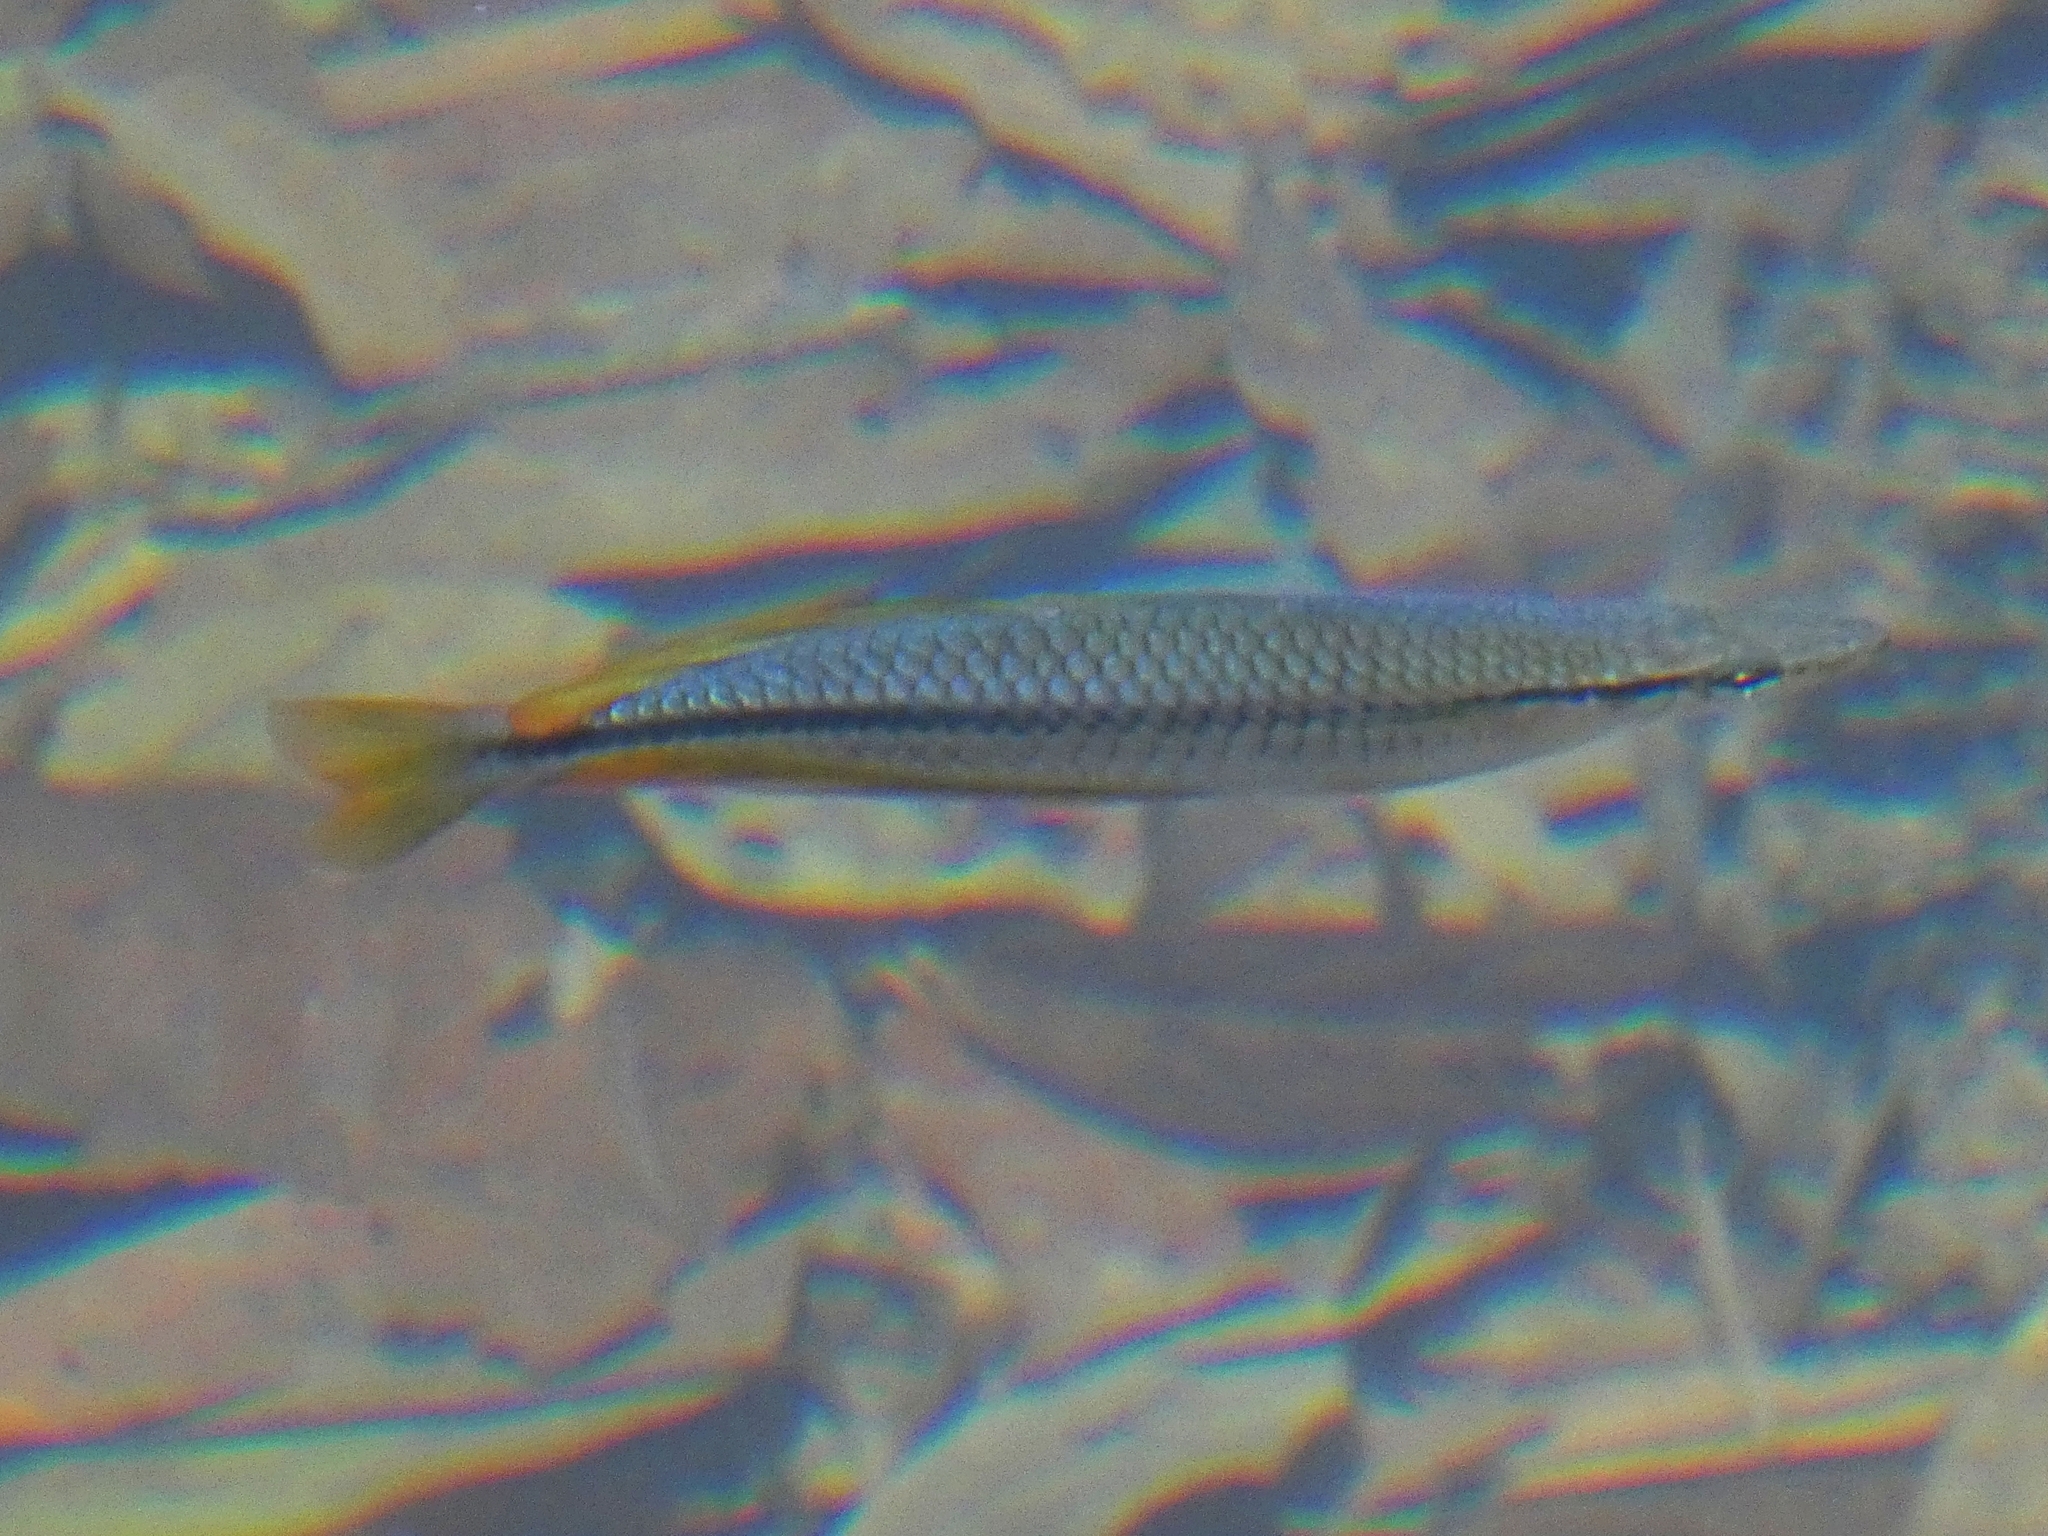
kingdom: Animalia
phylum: Chordata
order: Atheriniformes
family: Melanotaeniidae
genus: Melanotaenia
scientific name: Melanotaenia trifasciata
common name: Banded rainbowfish
